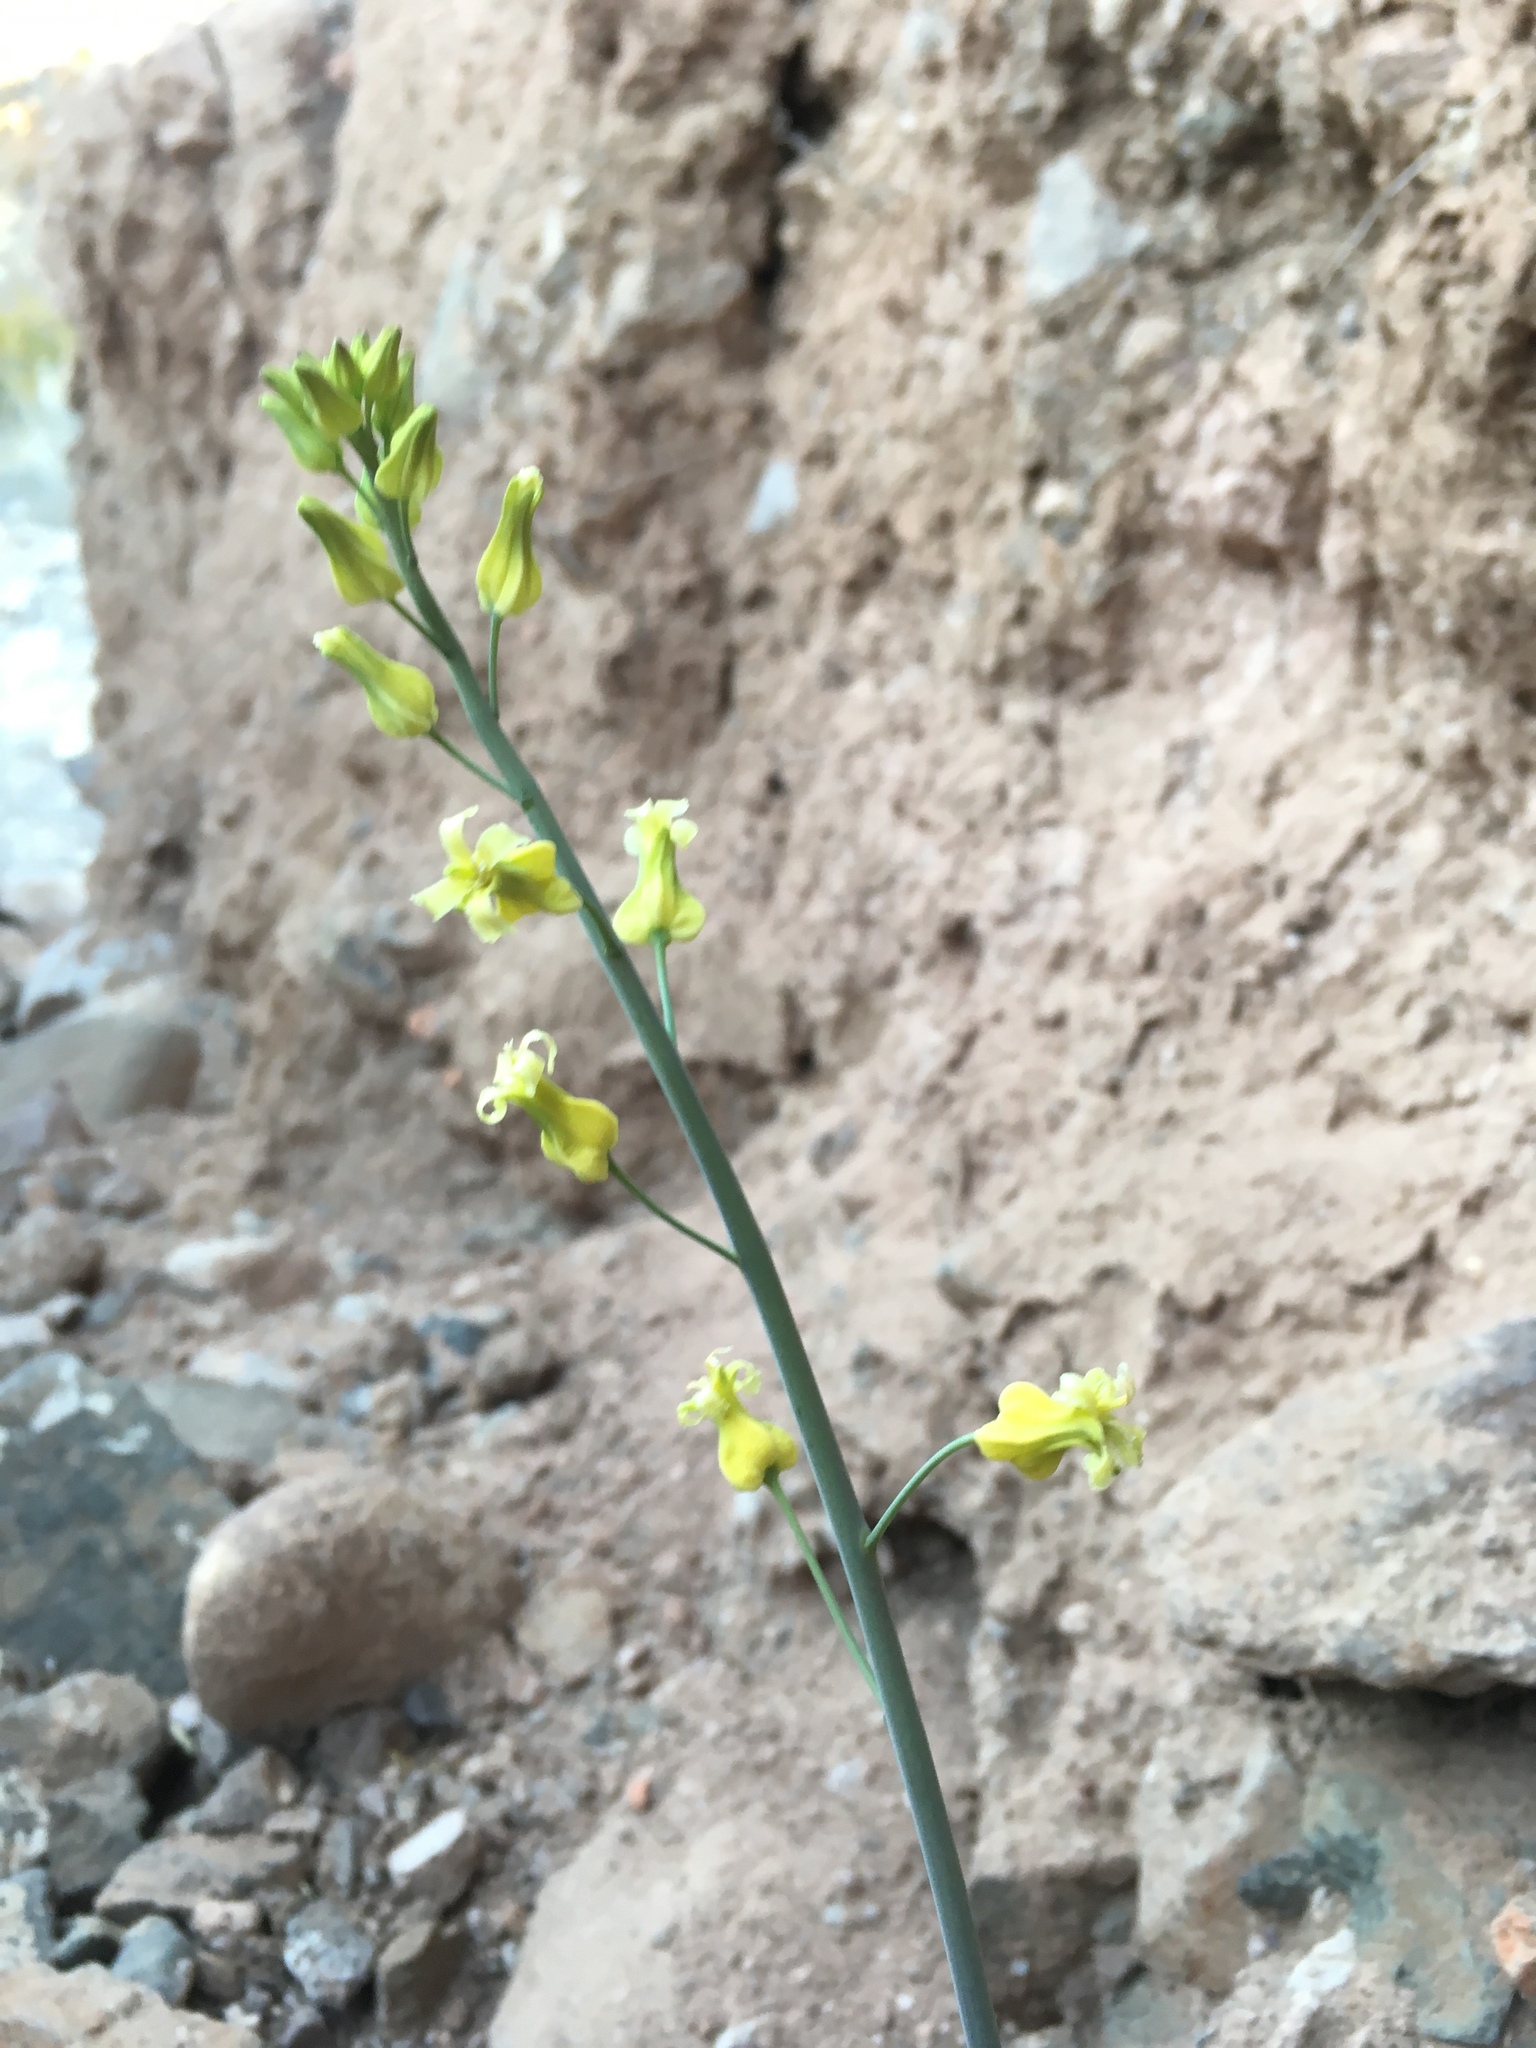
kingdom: Plantae
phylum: Tracheophyta
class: Magnoliopsida
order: Brassicales
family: Brassicaceae
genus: Streptanthus
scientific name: Streptanthus carinatus
